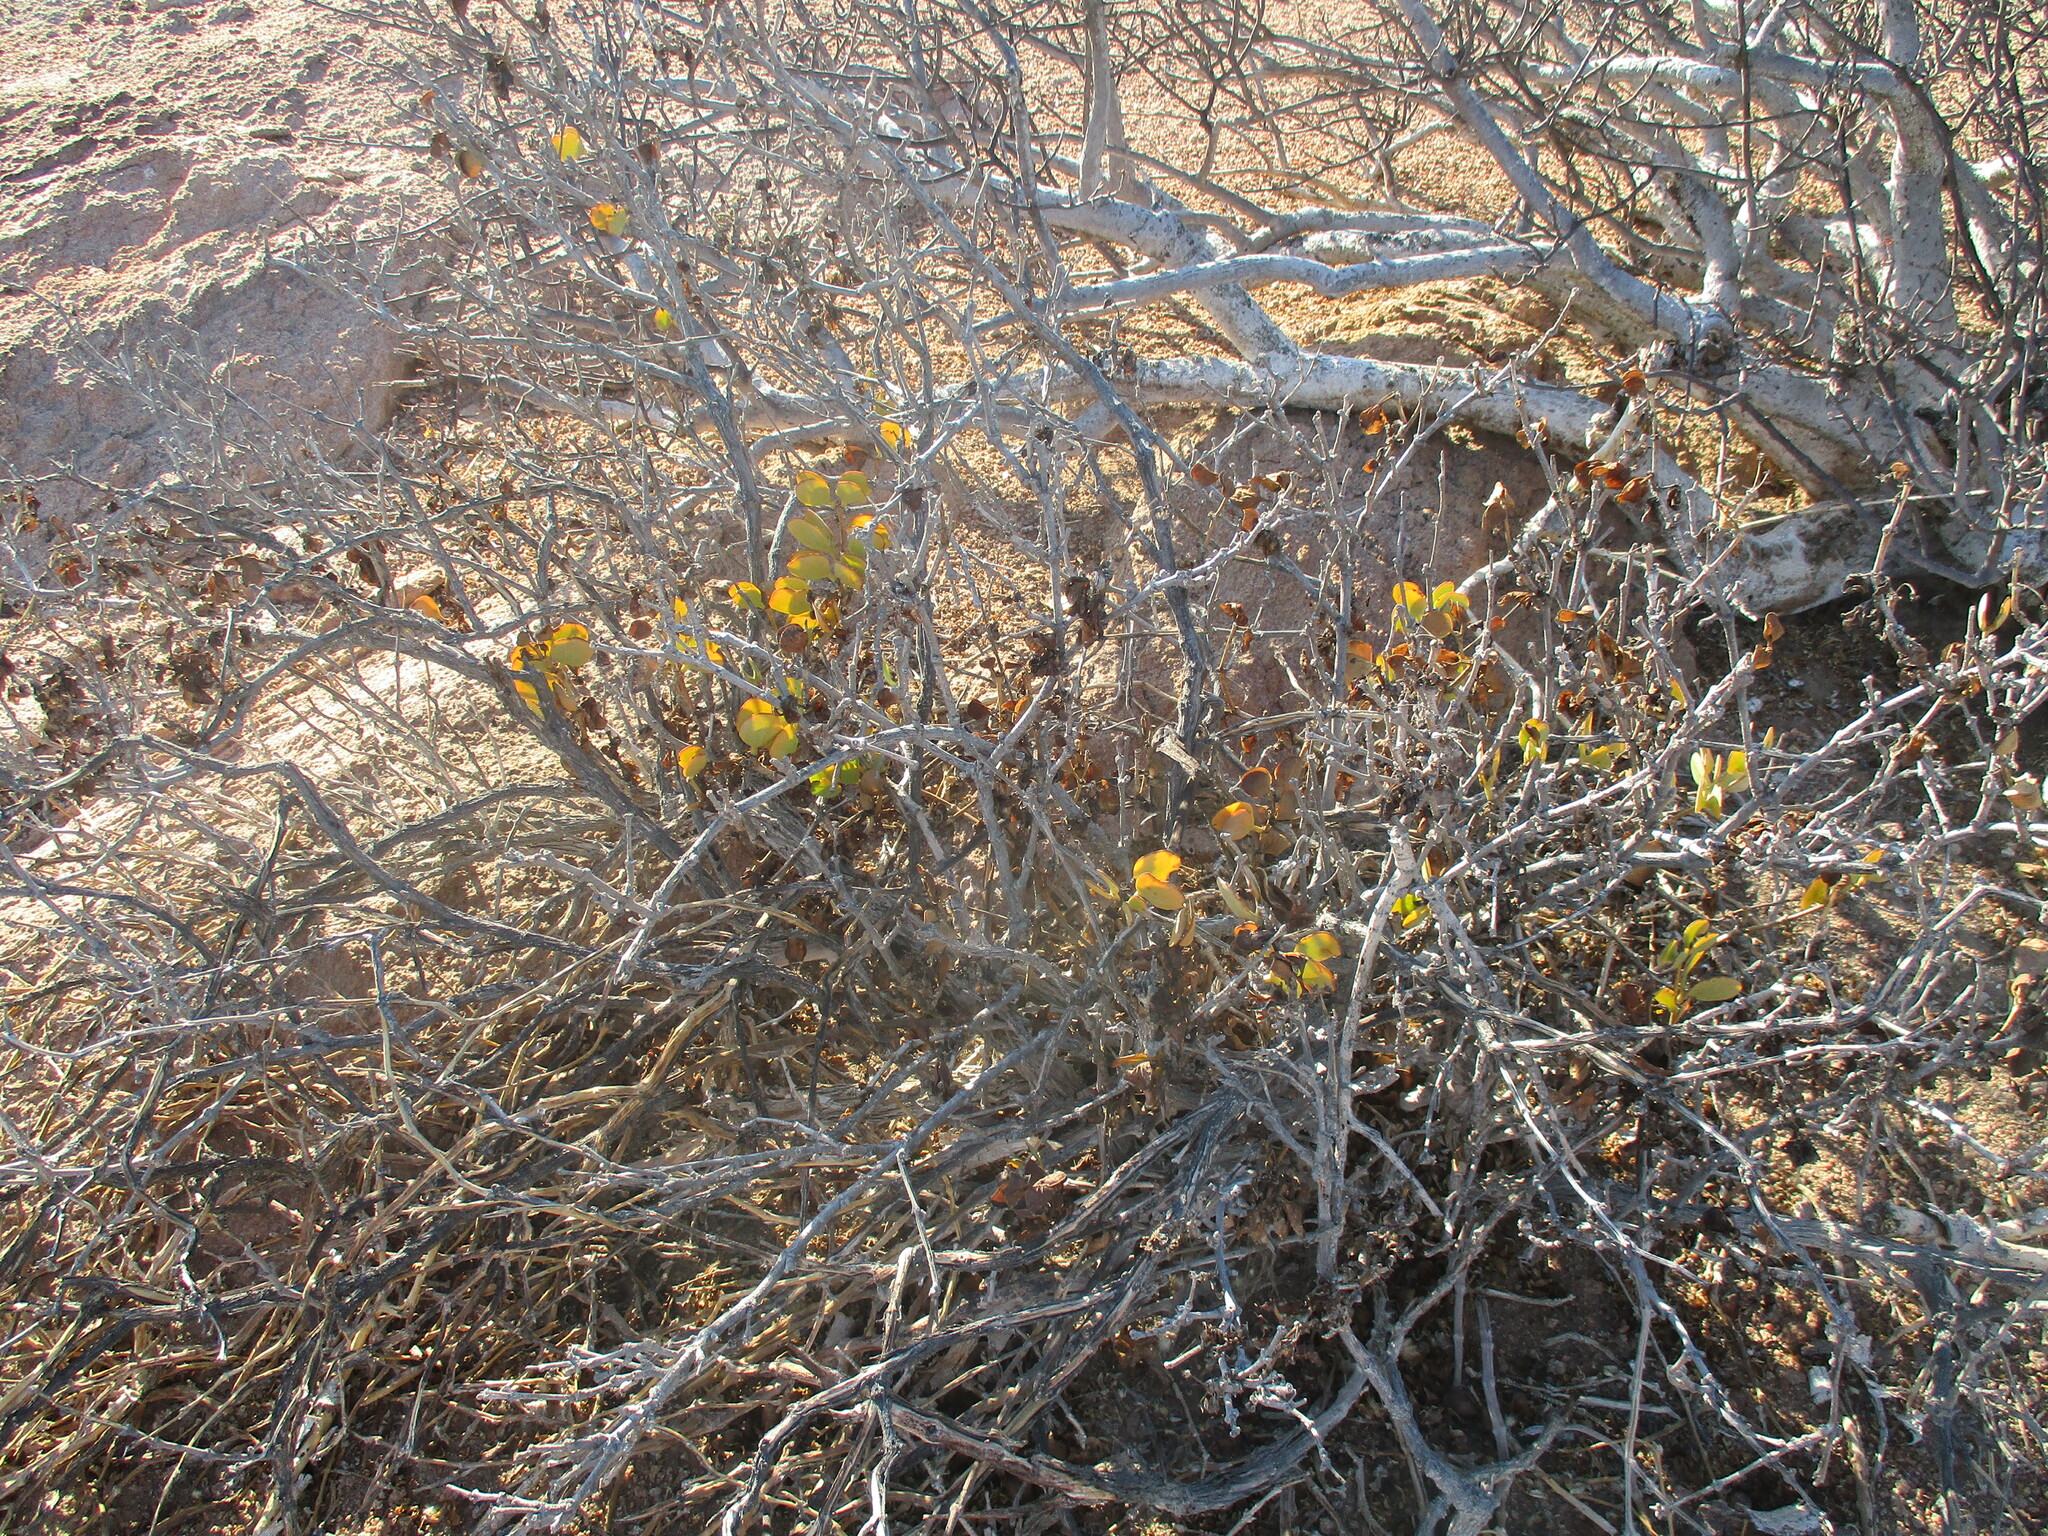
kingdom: Plantae
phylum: Tracheophyta
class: Magnoliopsida
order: Zygophyllales
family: Zygophyllaceae
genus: Tetraena
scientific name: Tetraena stapfii
